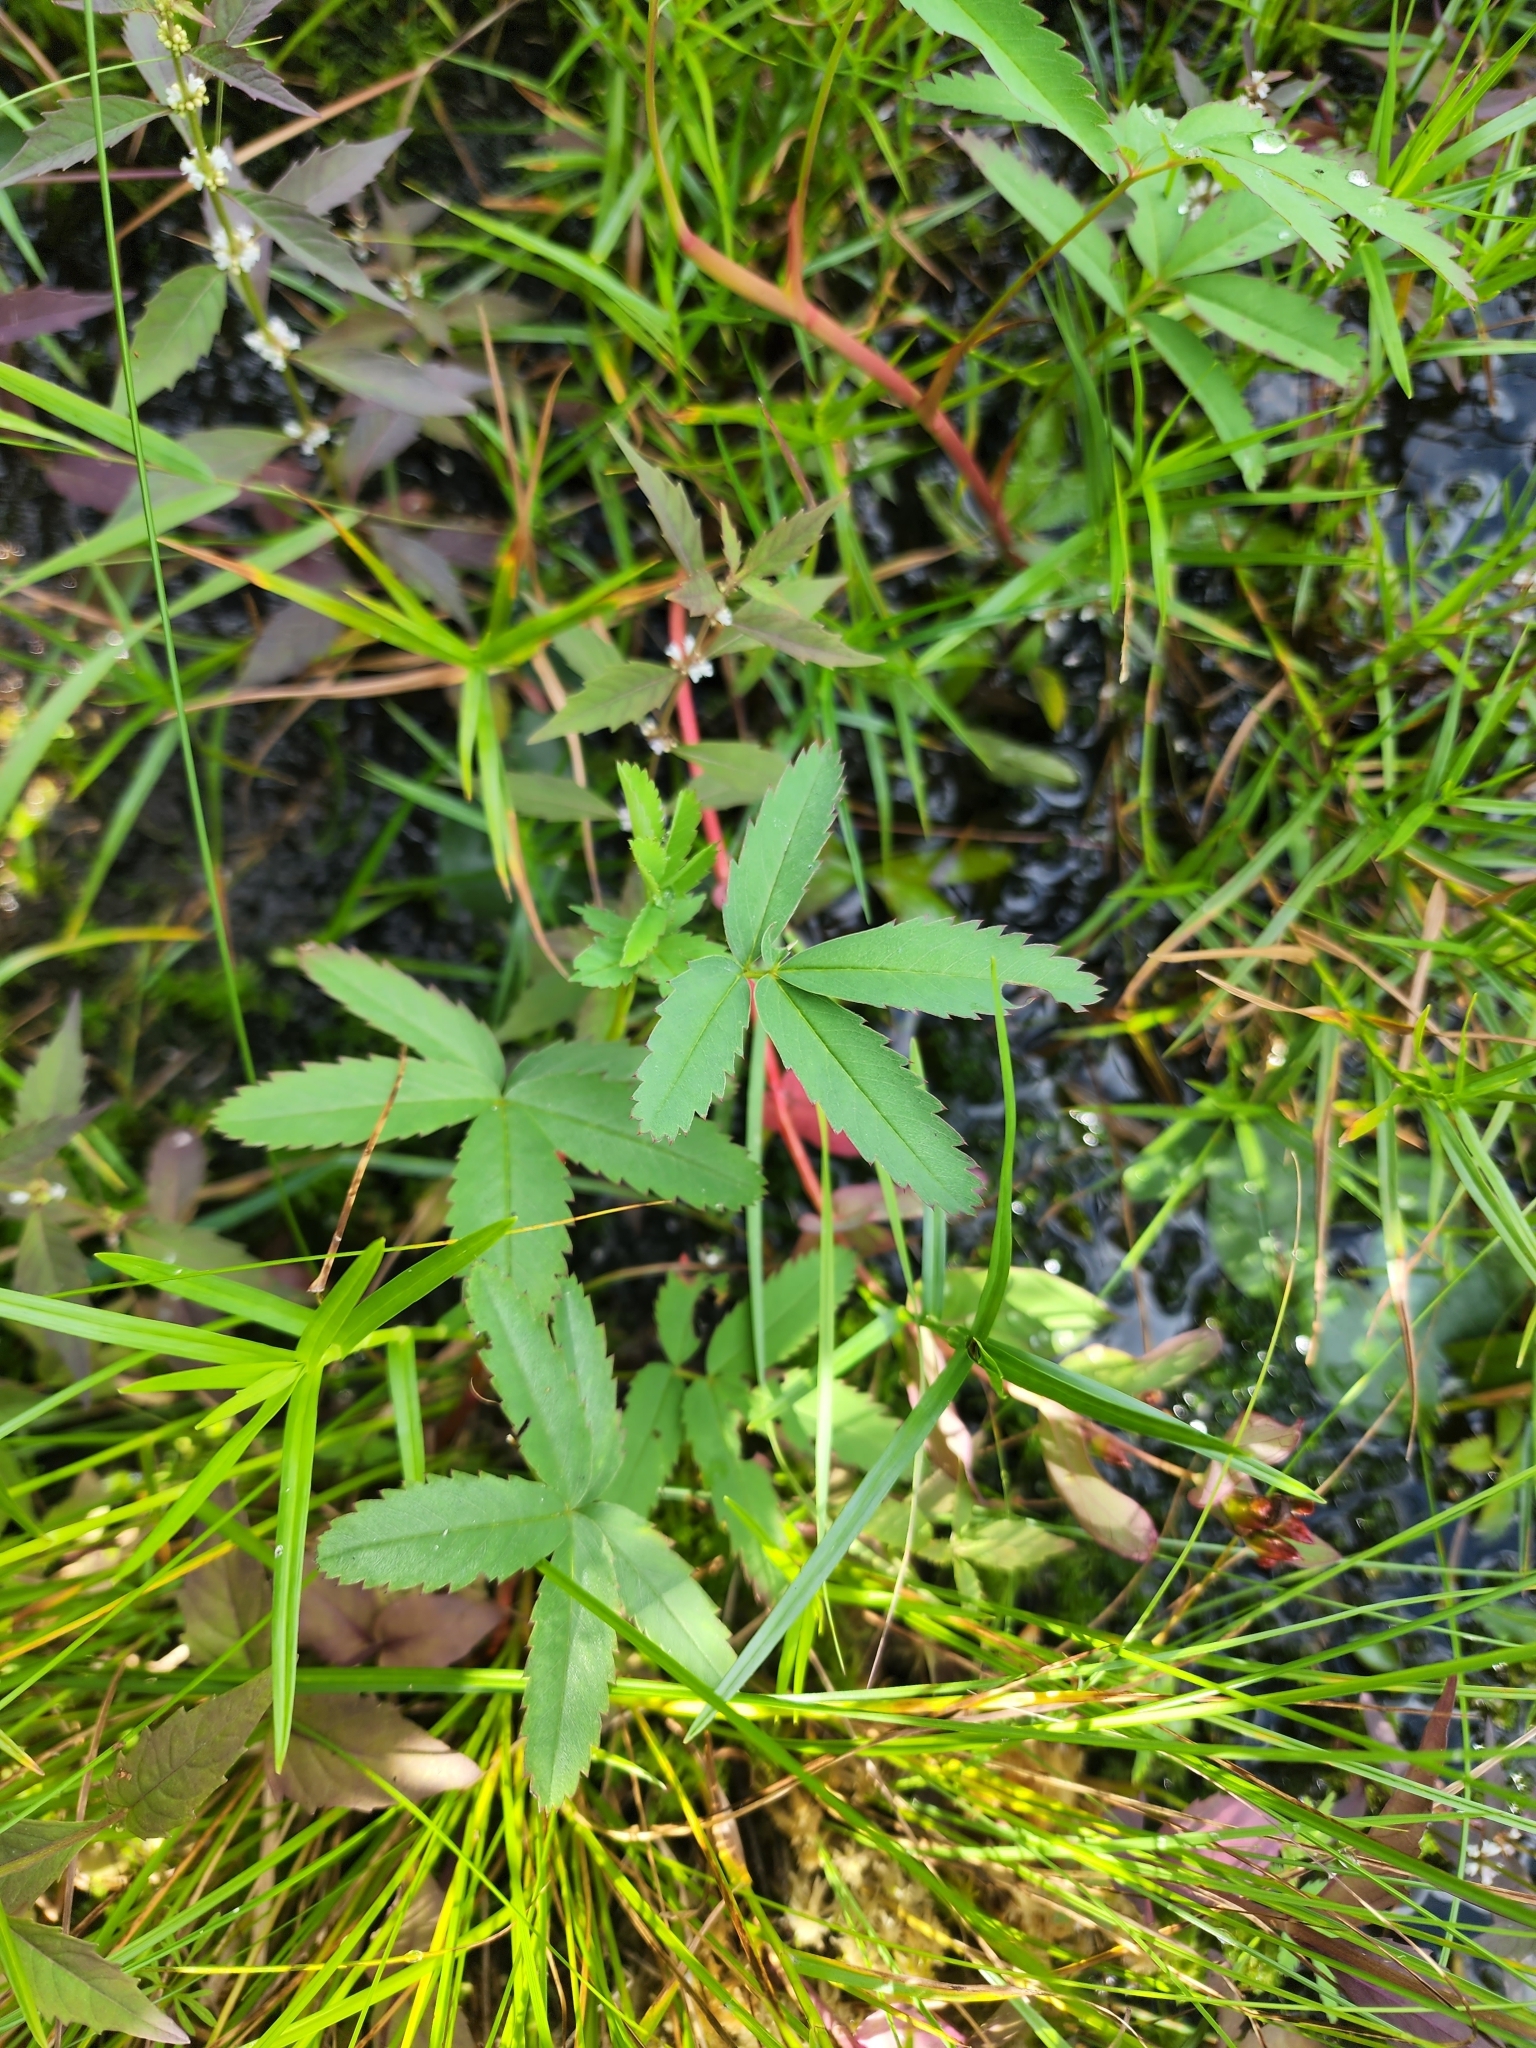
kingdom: Plantae
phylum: Tracheophyta
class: Magnoliopsida
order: Rosales
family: Rosaceae
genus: Comarum
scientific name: Comarum palustre
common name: Marsh cinquefoil
